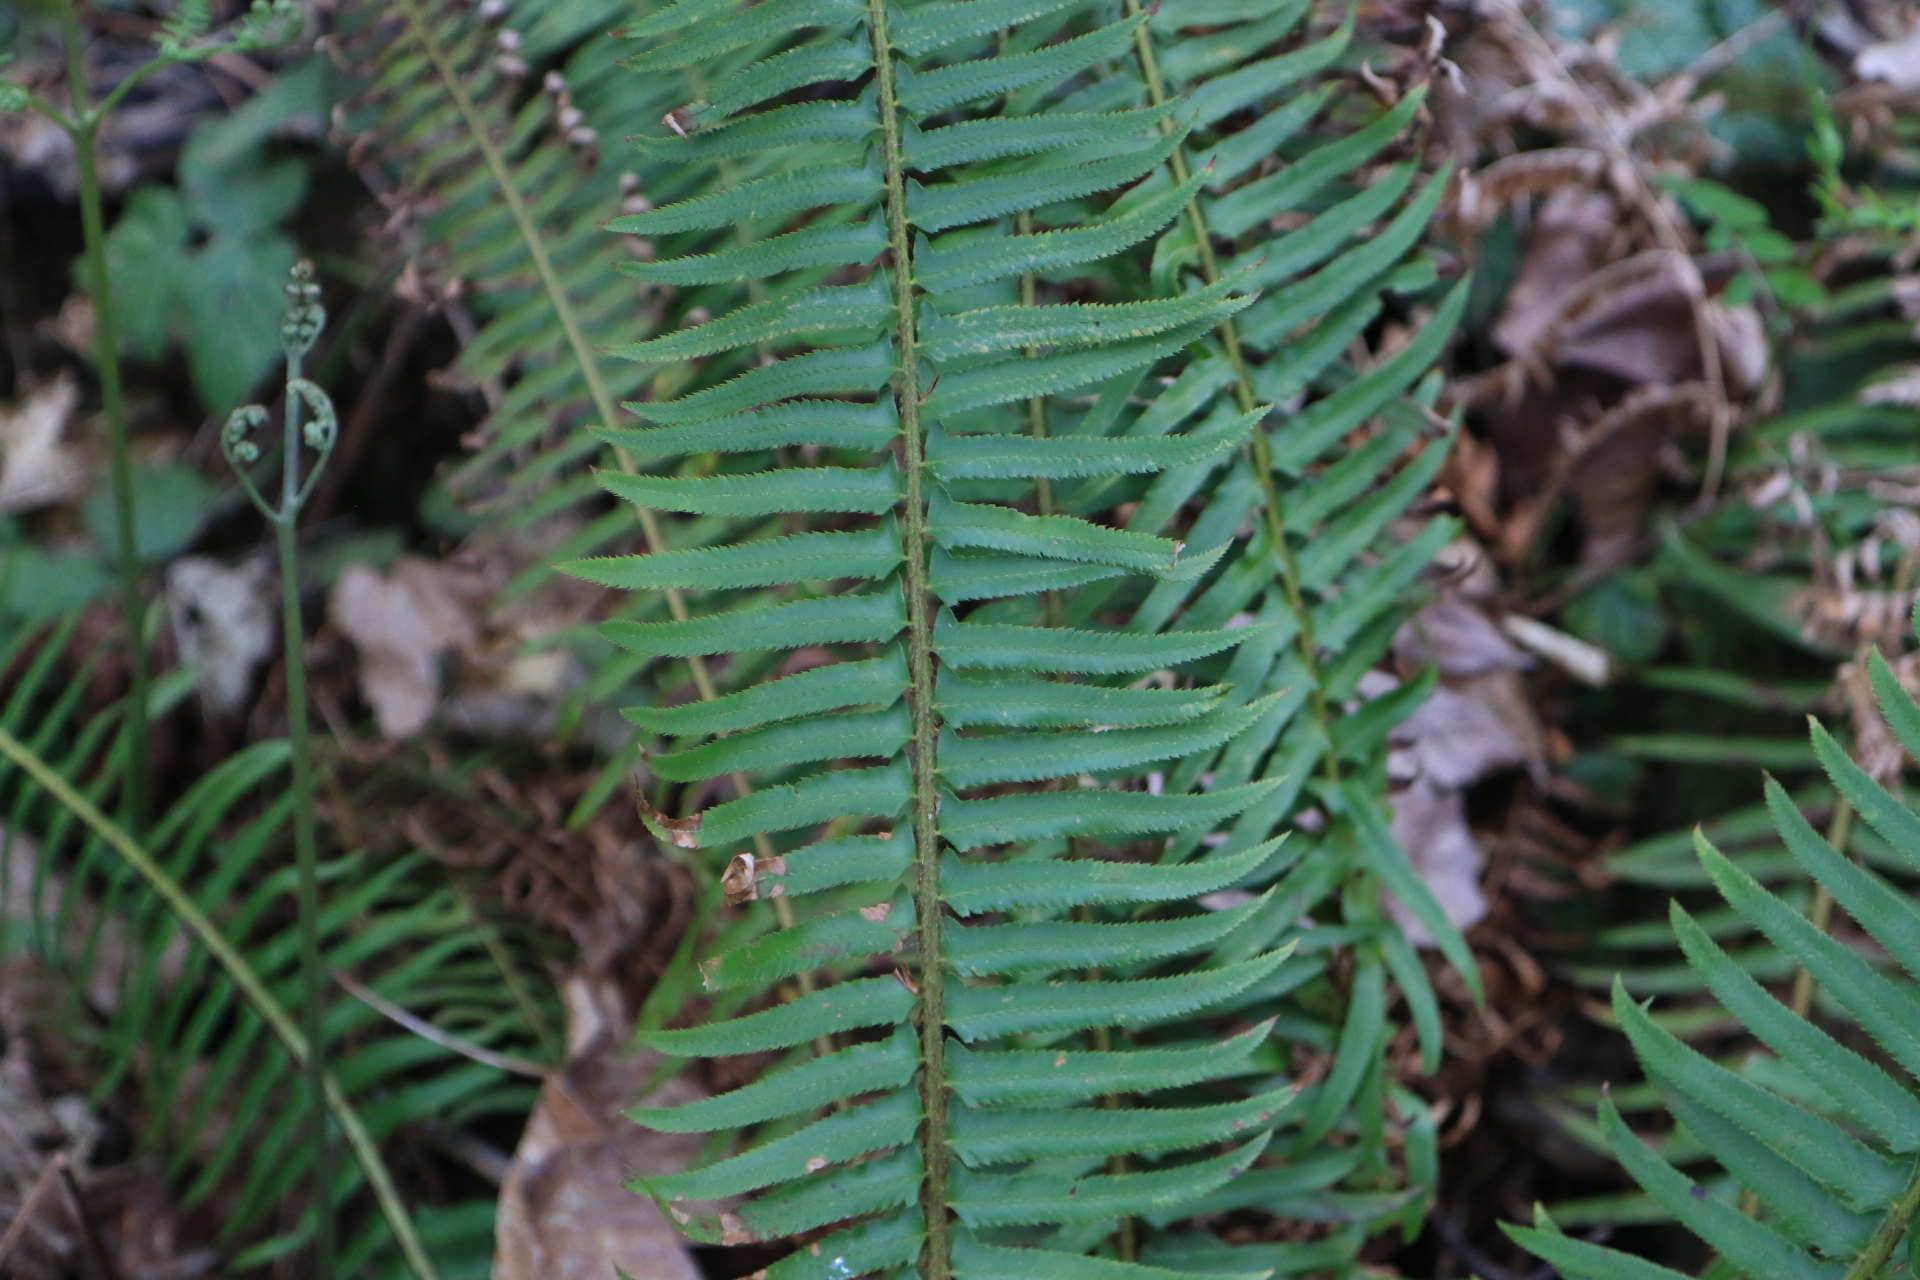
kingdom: Plantae
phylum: Tracheophyta
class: Polypodiopsida
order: Polypodiales
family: Dryopteridaceae
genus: Polystichum
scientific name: Polystichum munitum
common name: Western sword-fern
